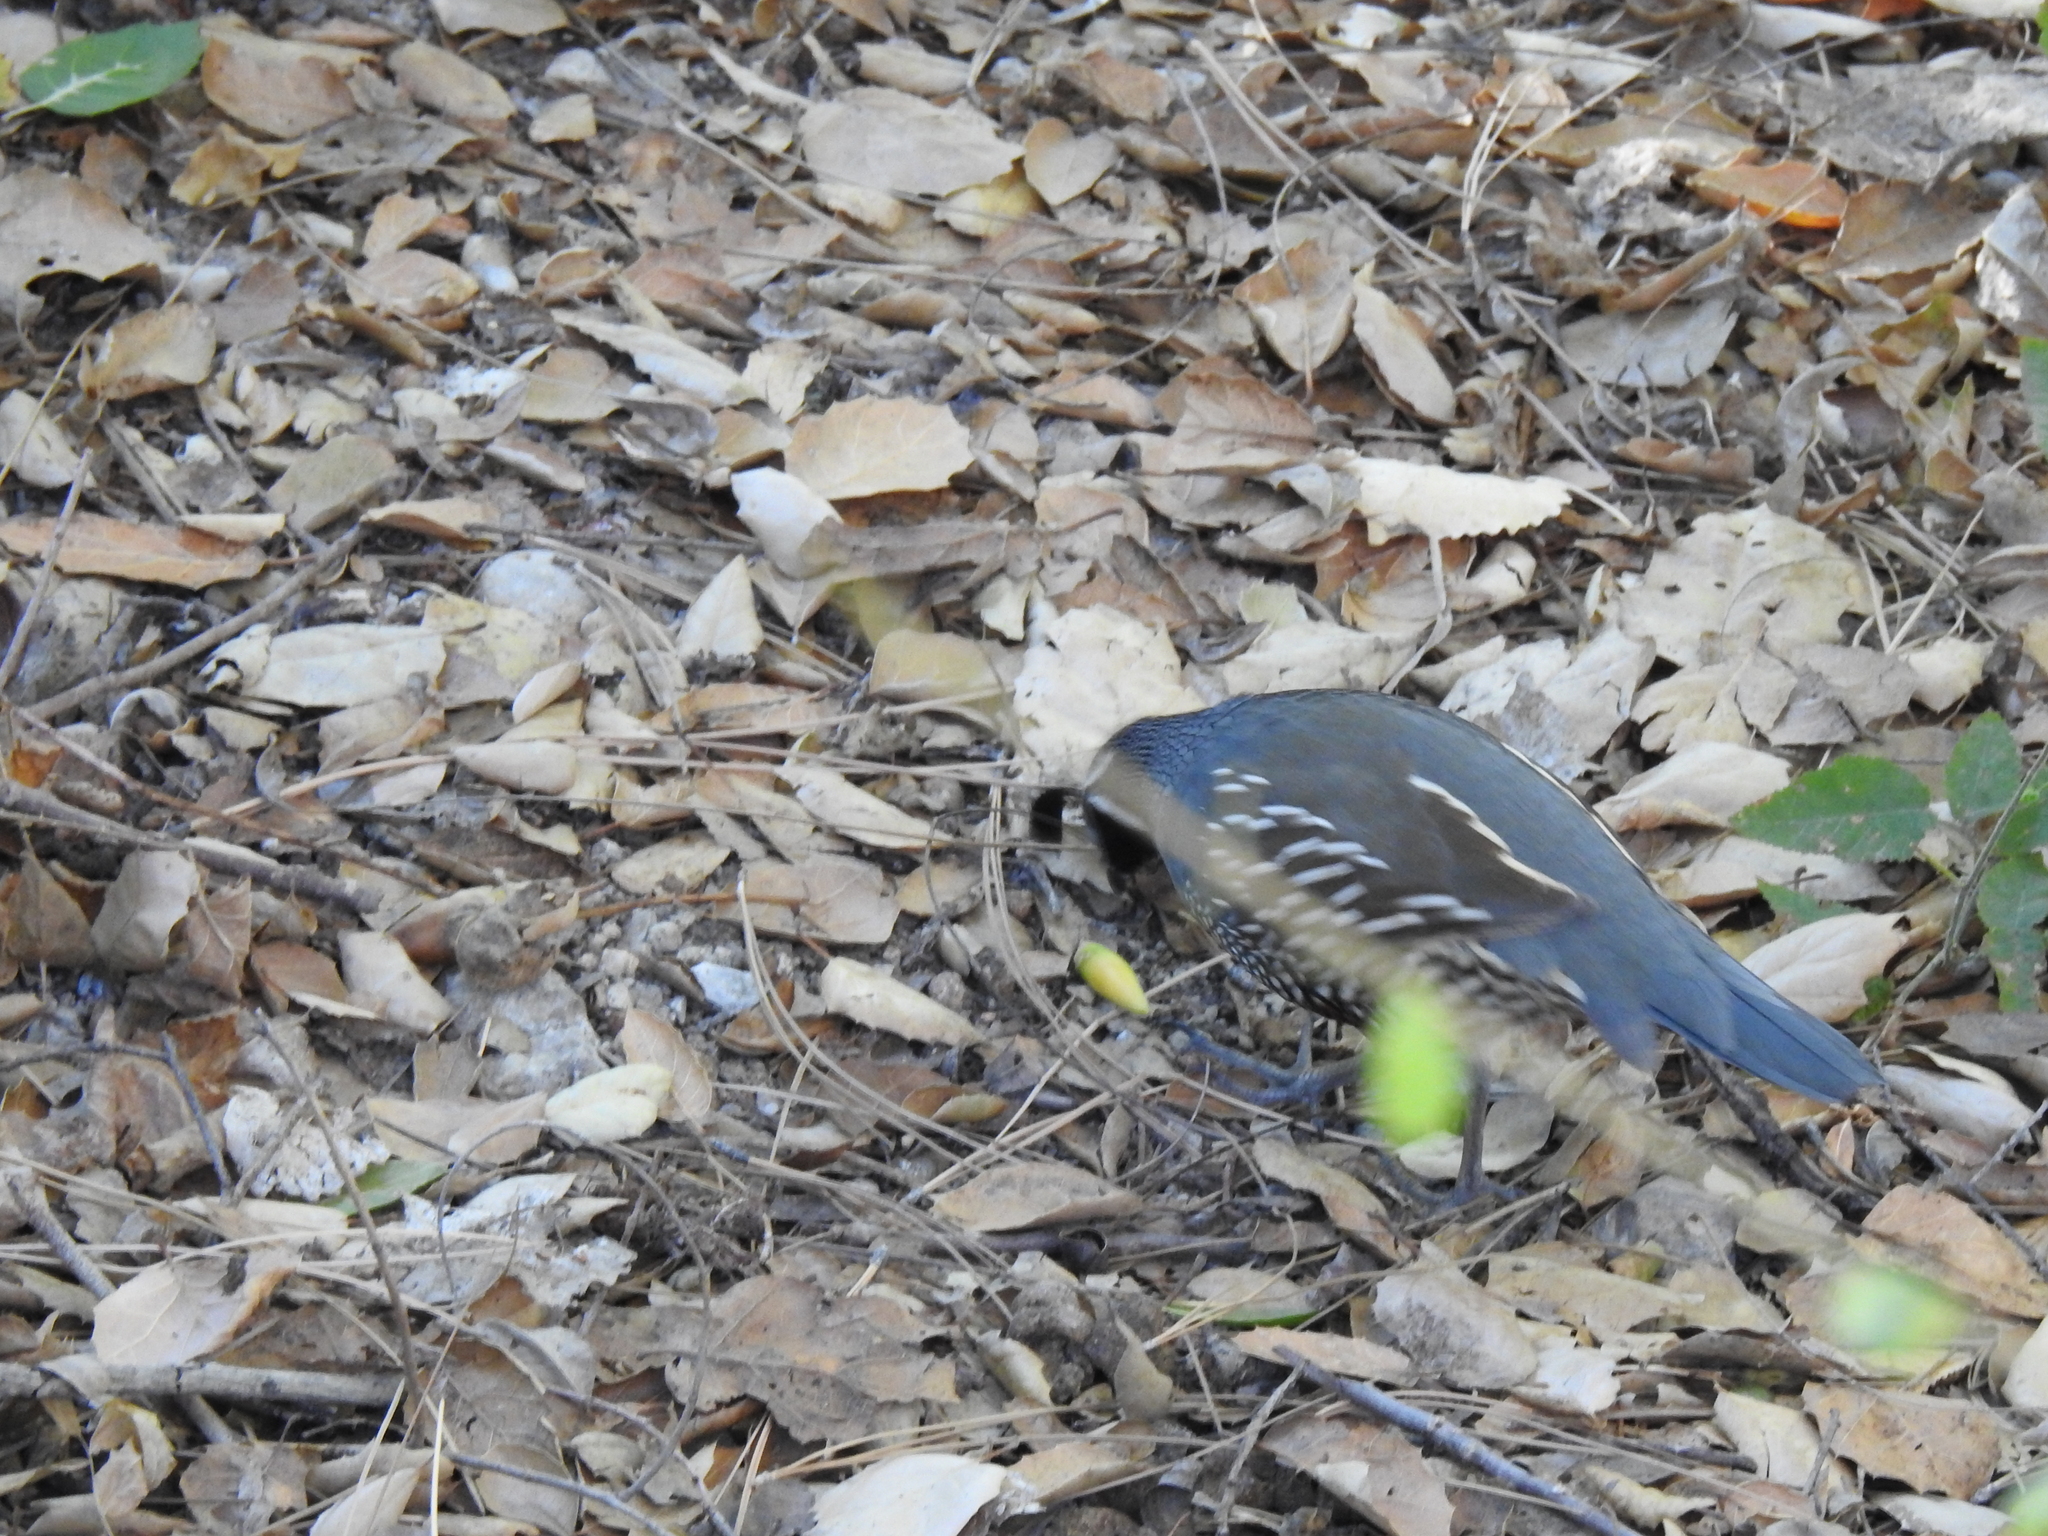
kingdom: Animalia
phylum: Chordata
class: Aves
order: Galliformes
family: Odontophoridae
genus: Callipepla
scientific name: Callipepla californica
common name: California quail
